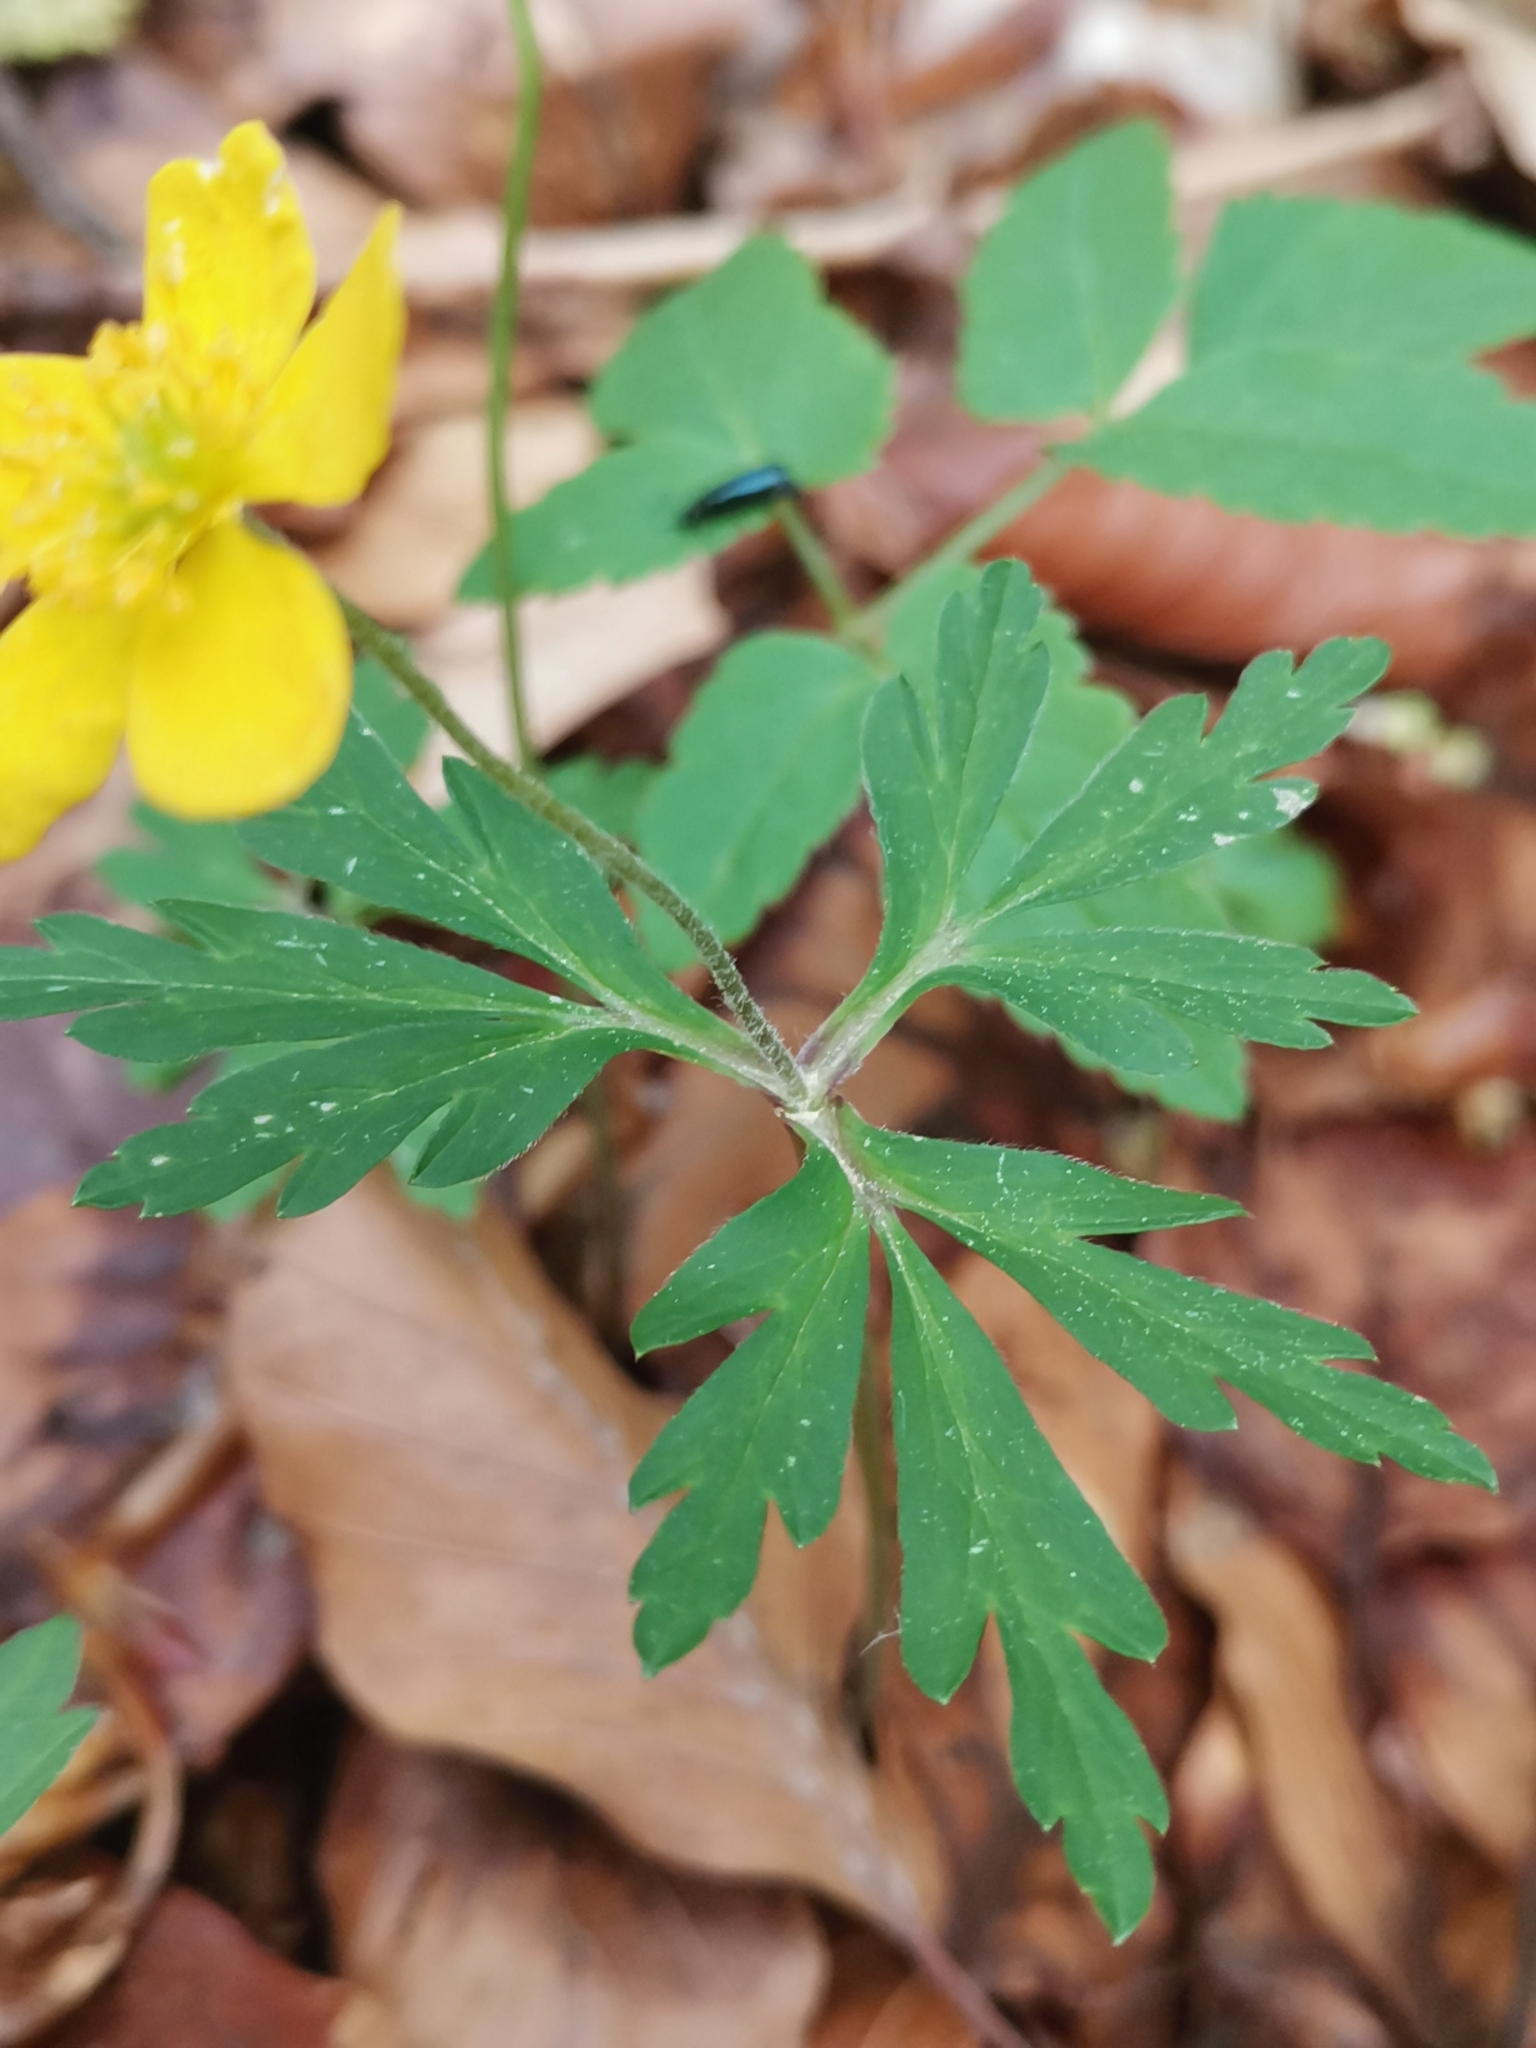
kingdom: Plantae
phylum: Tracheophyta
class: Magnoliopsida
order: Ranunculales
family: Ranunculaceae
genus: Anemone
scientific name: Anemone ranunculoides
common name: Yellow anemone
